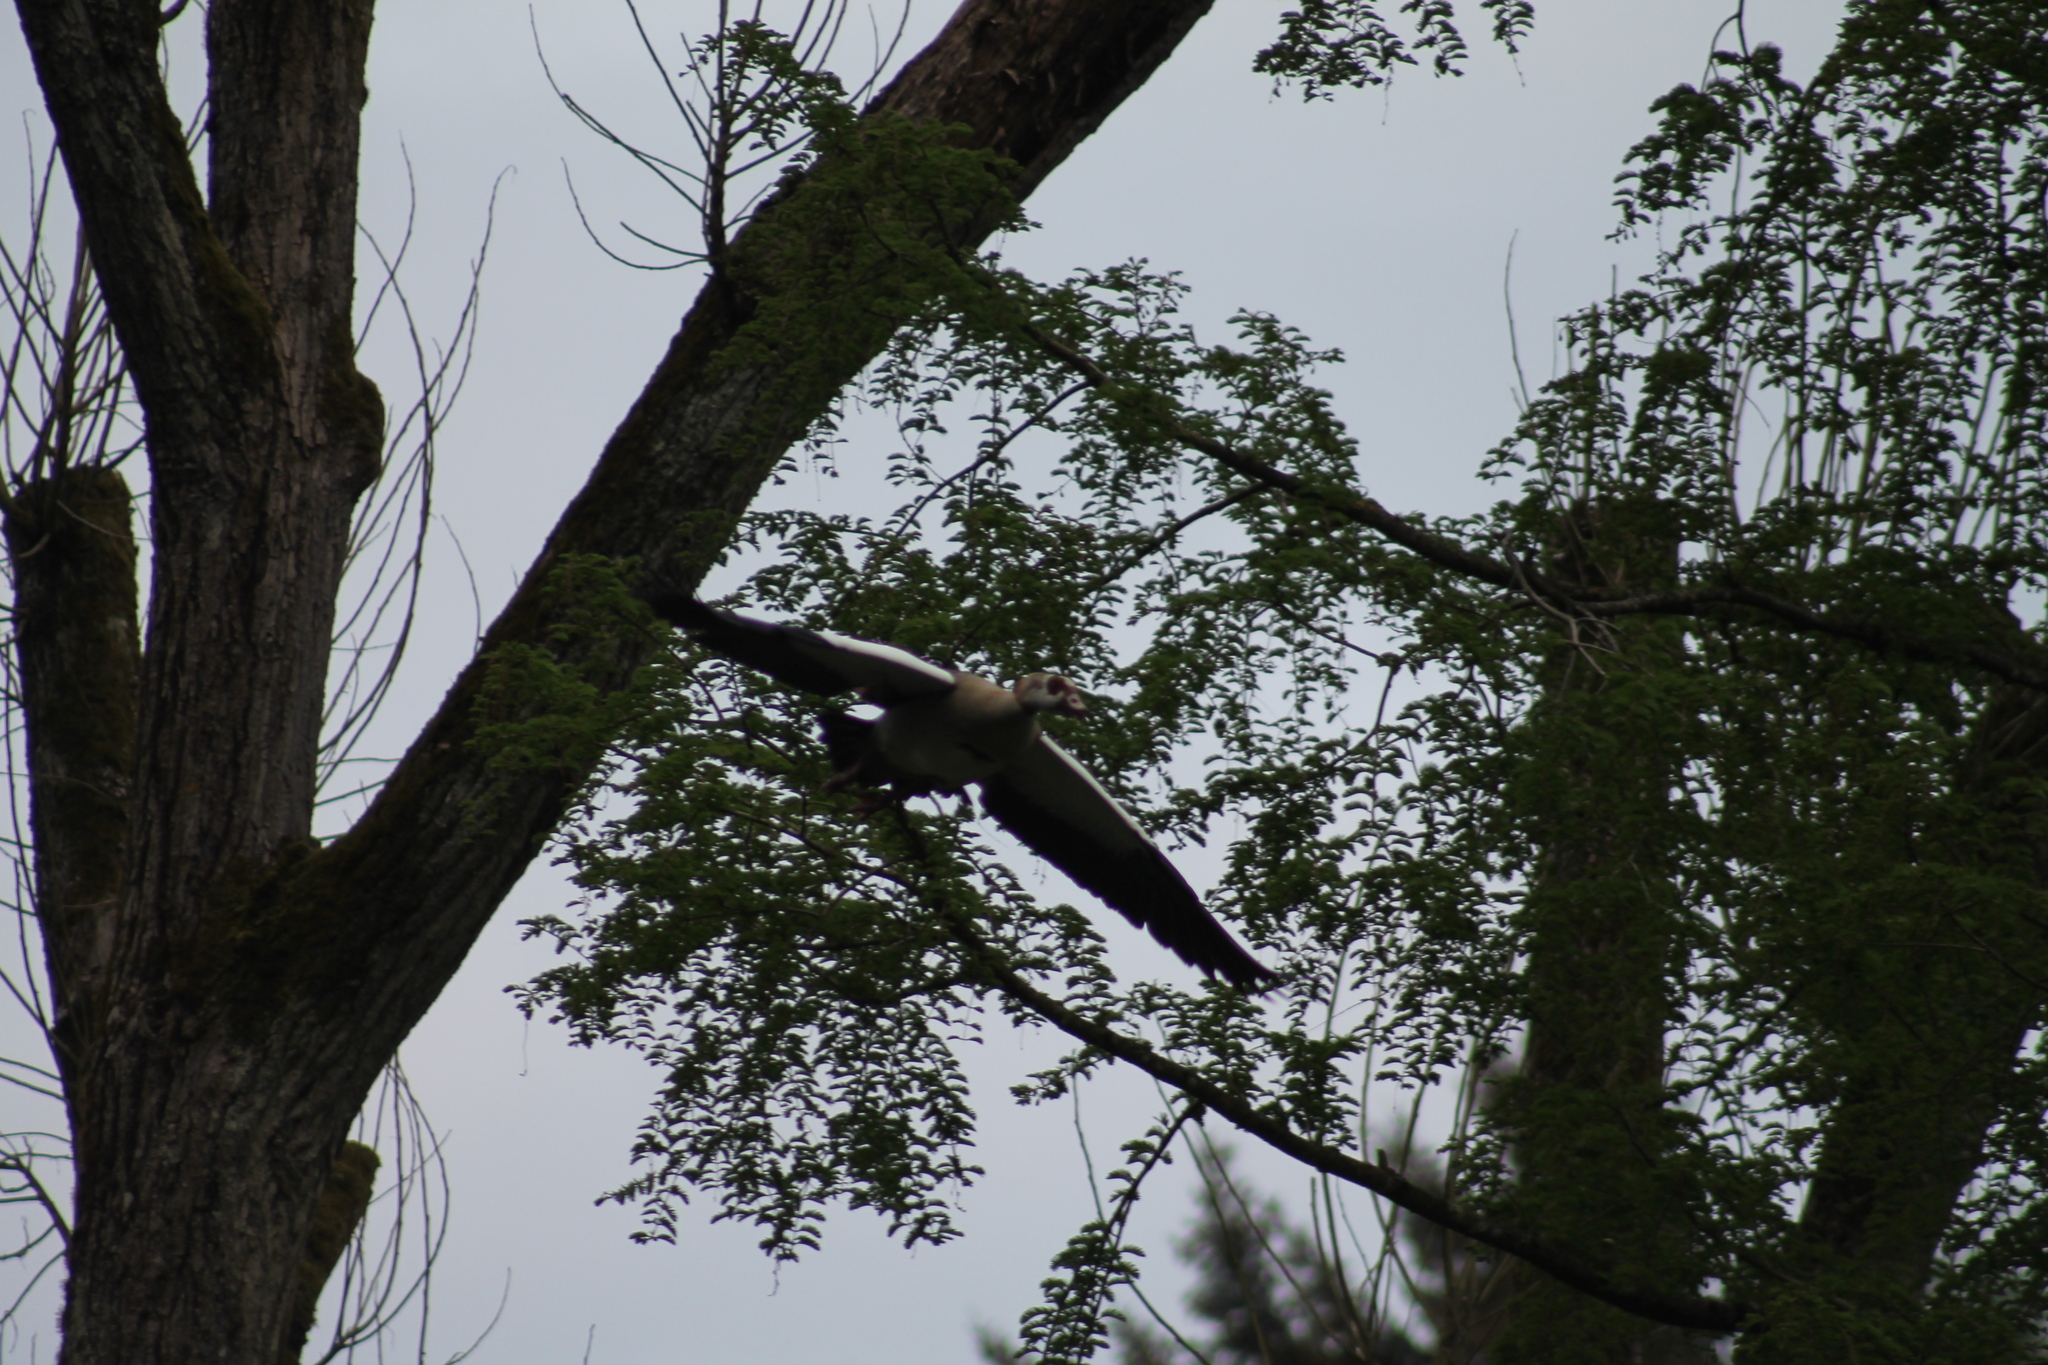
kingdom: Animalia
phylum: Chordata
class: Aves
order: Anseriformes
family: Anatidae
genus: Alopochen
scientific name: Alopochen aegyptiaca
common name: Egyptian goose
